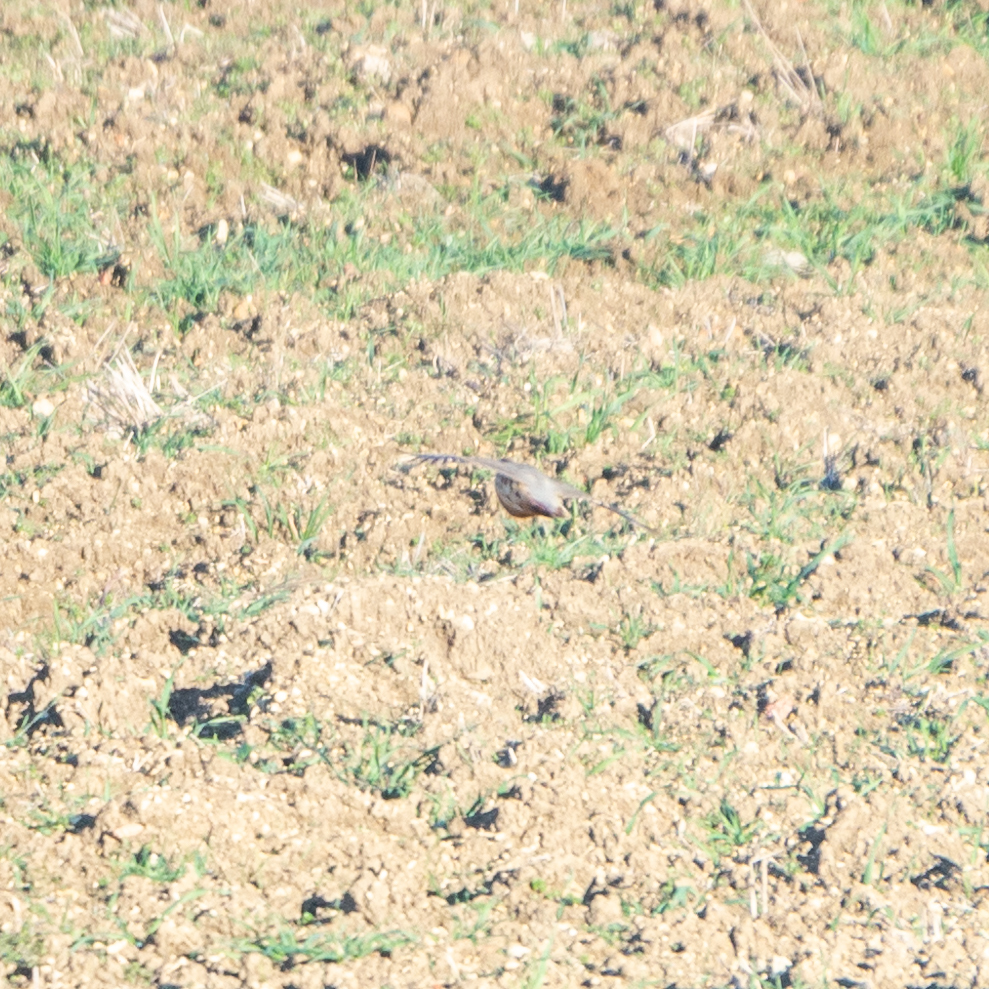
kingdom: Animalia
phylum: Chordata
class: Aves
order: Galliformes
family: Phasianidae
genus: Alectoris
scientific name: Alectoris rufa
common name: Red-legged partridge
